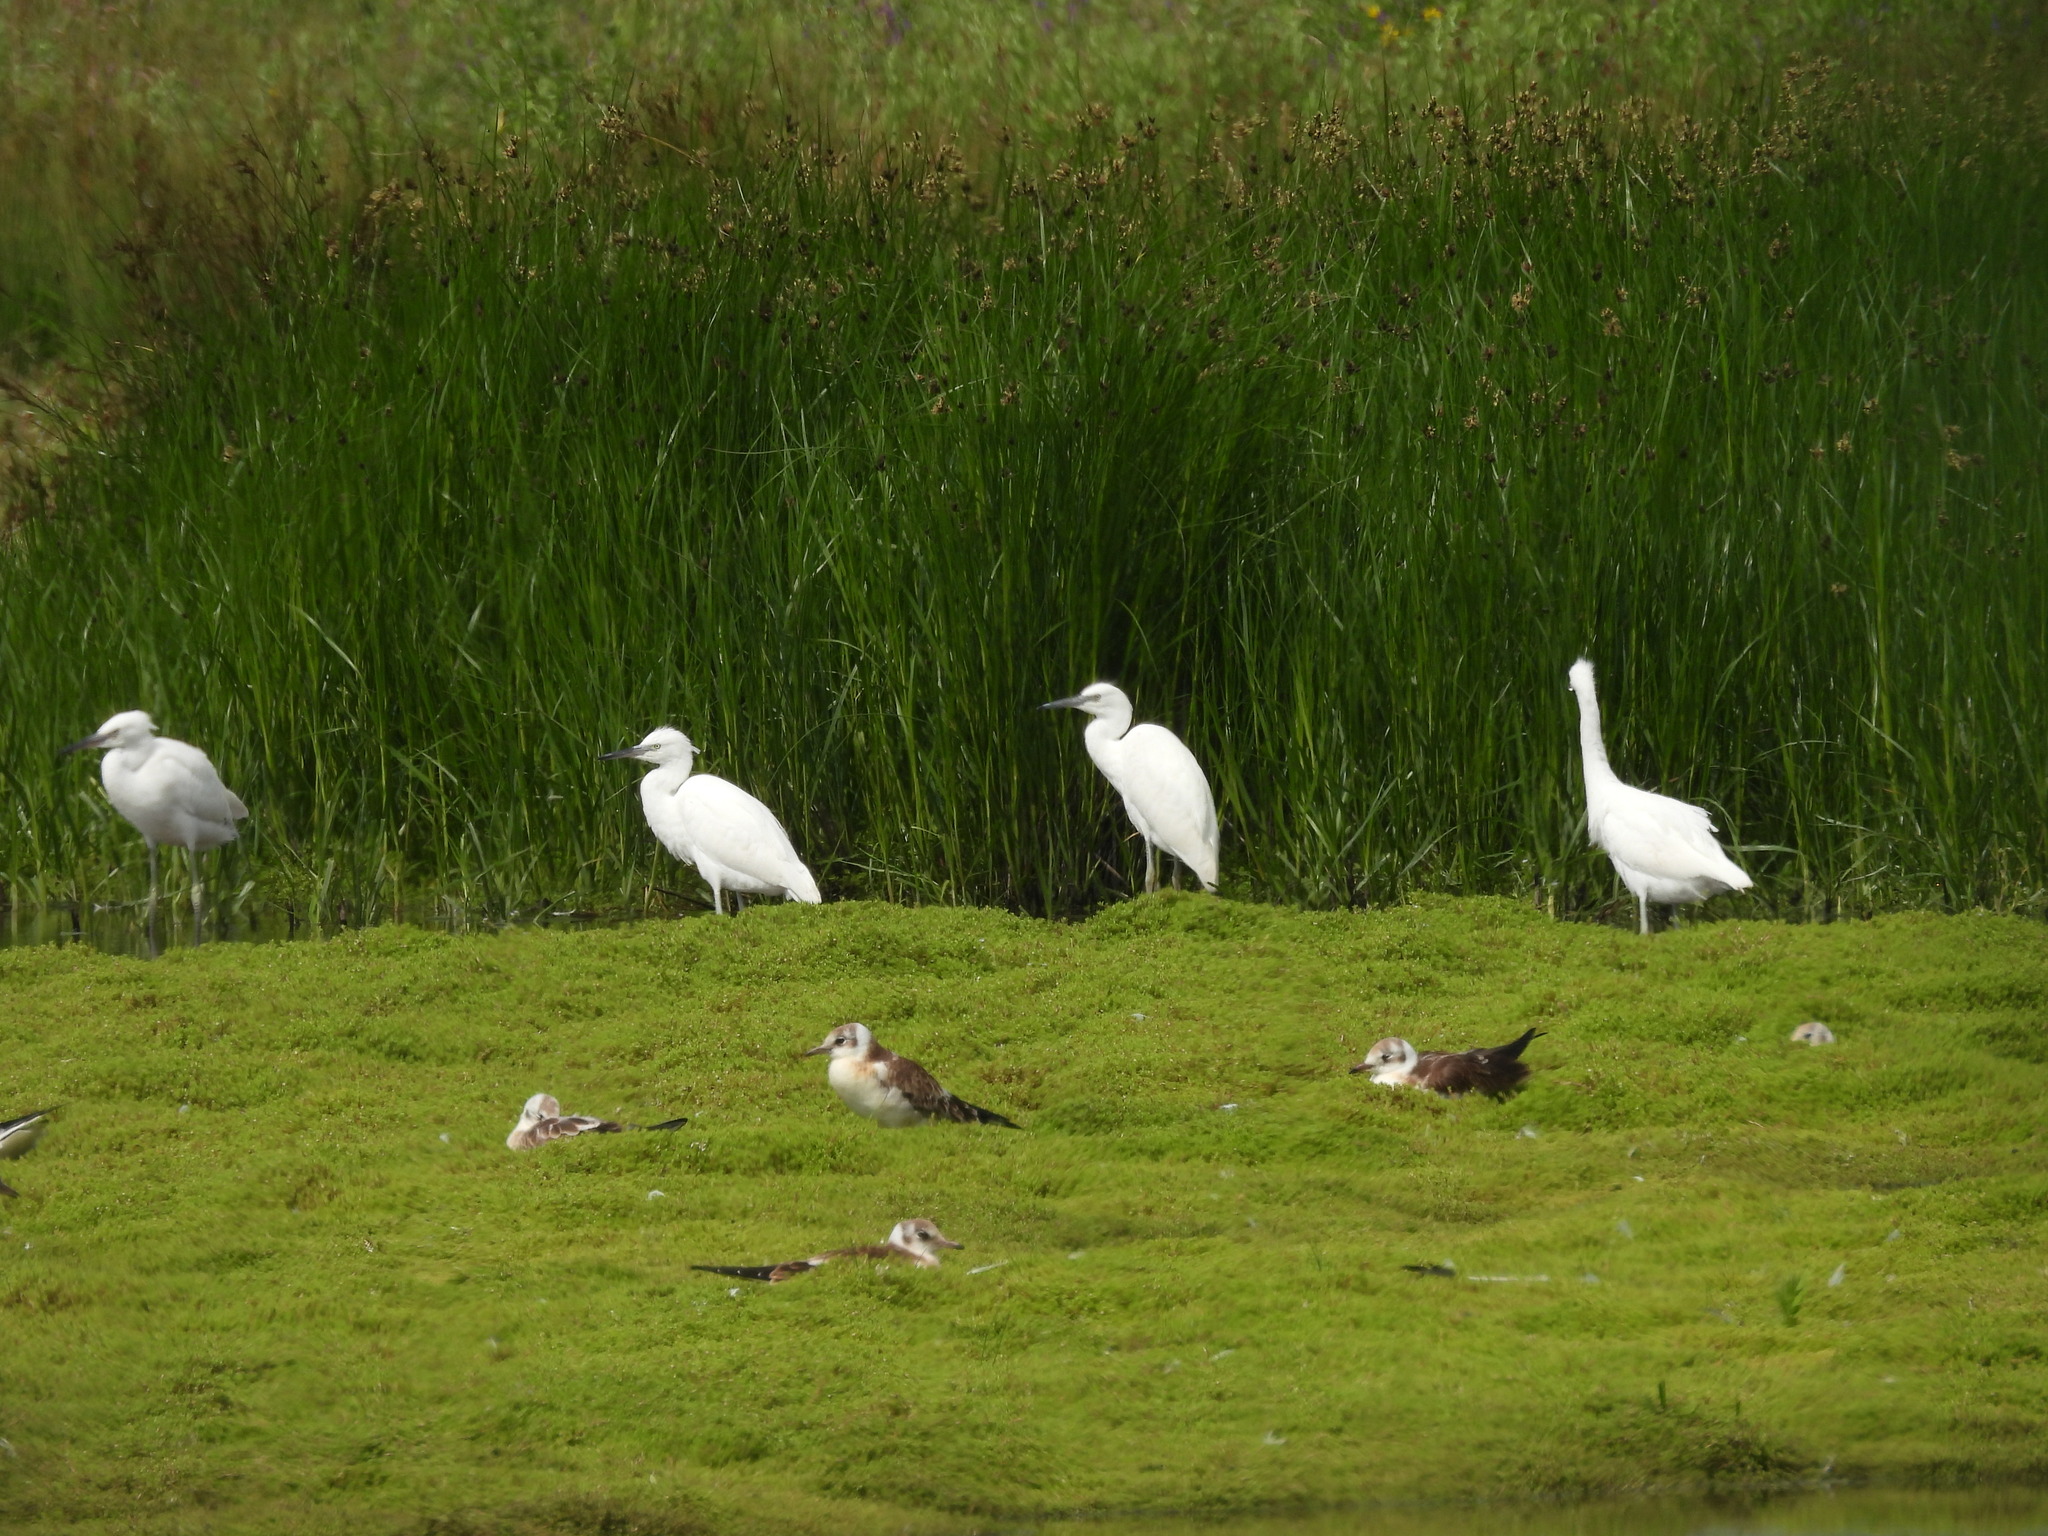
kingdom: Animalia
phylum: Chordata
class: Aves
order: Pelecaniformes
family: Ardeidae
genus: Egretta
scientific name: Egretta garzetta
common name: Little egret
